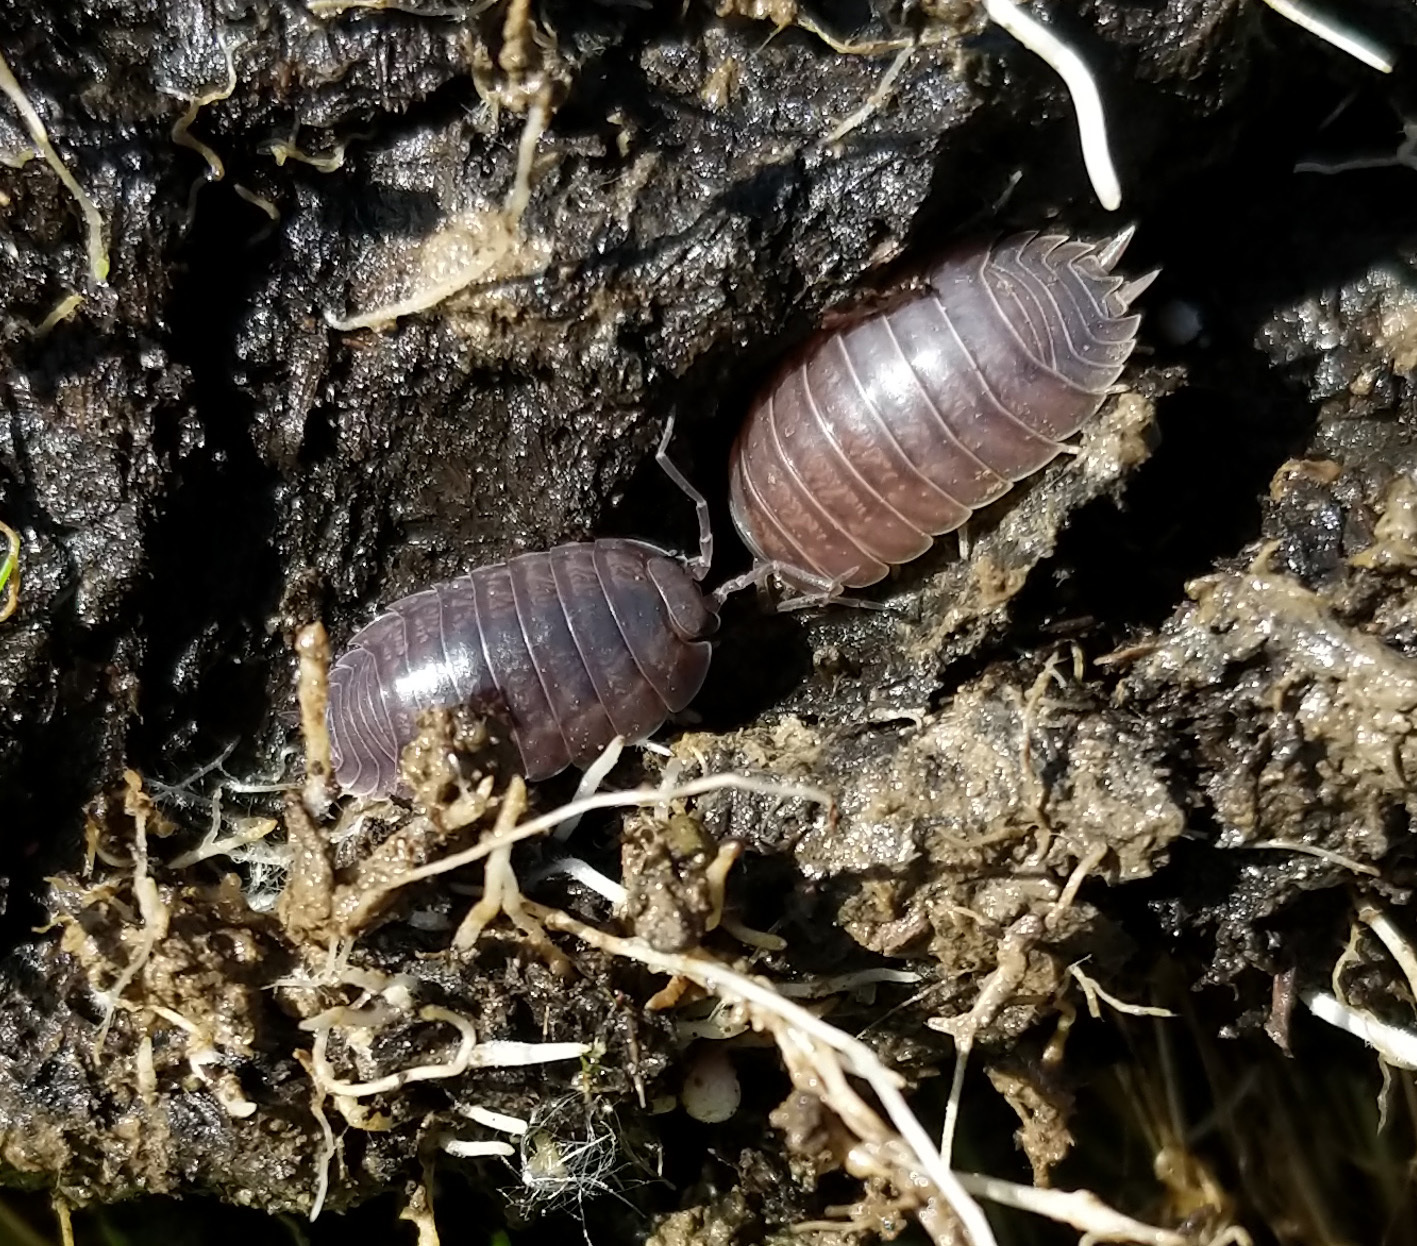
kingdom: Animalia
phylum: Arthropoda
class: Malacostraca
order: Isopoda
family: Porcellionidae
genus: Porcellio
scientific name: Porcellio laevis
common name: Swift woodlouse
